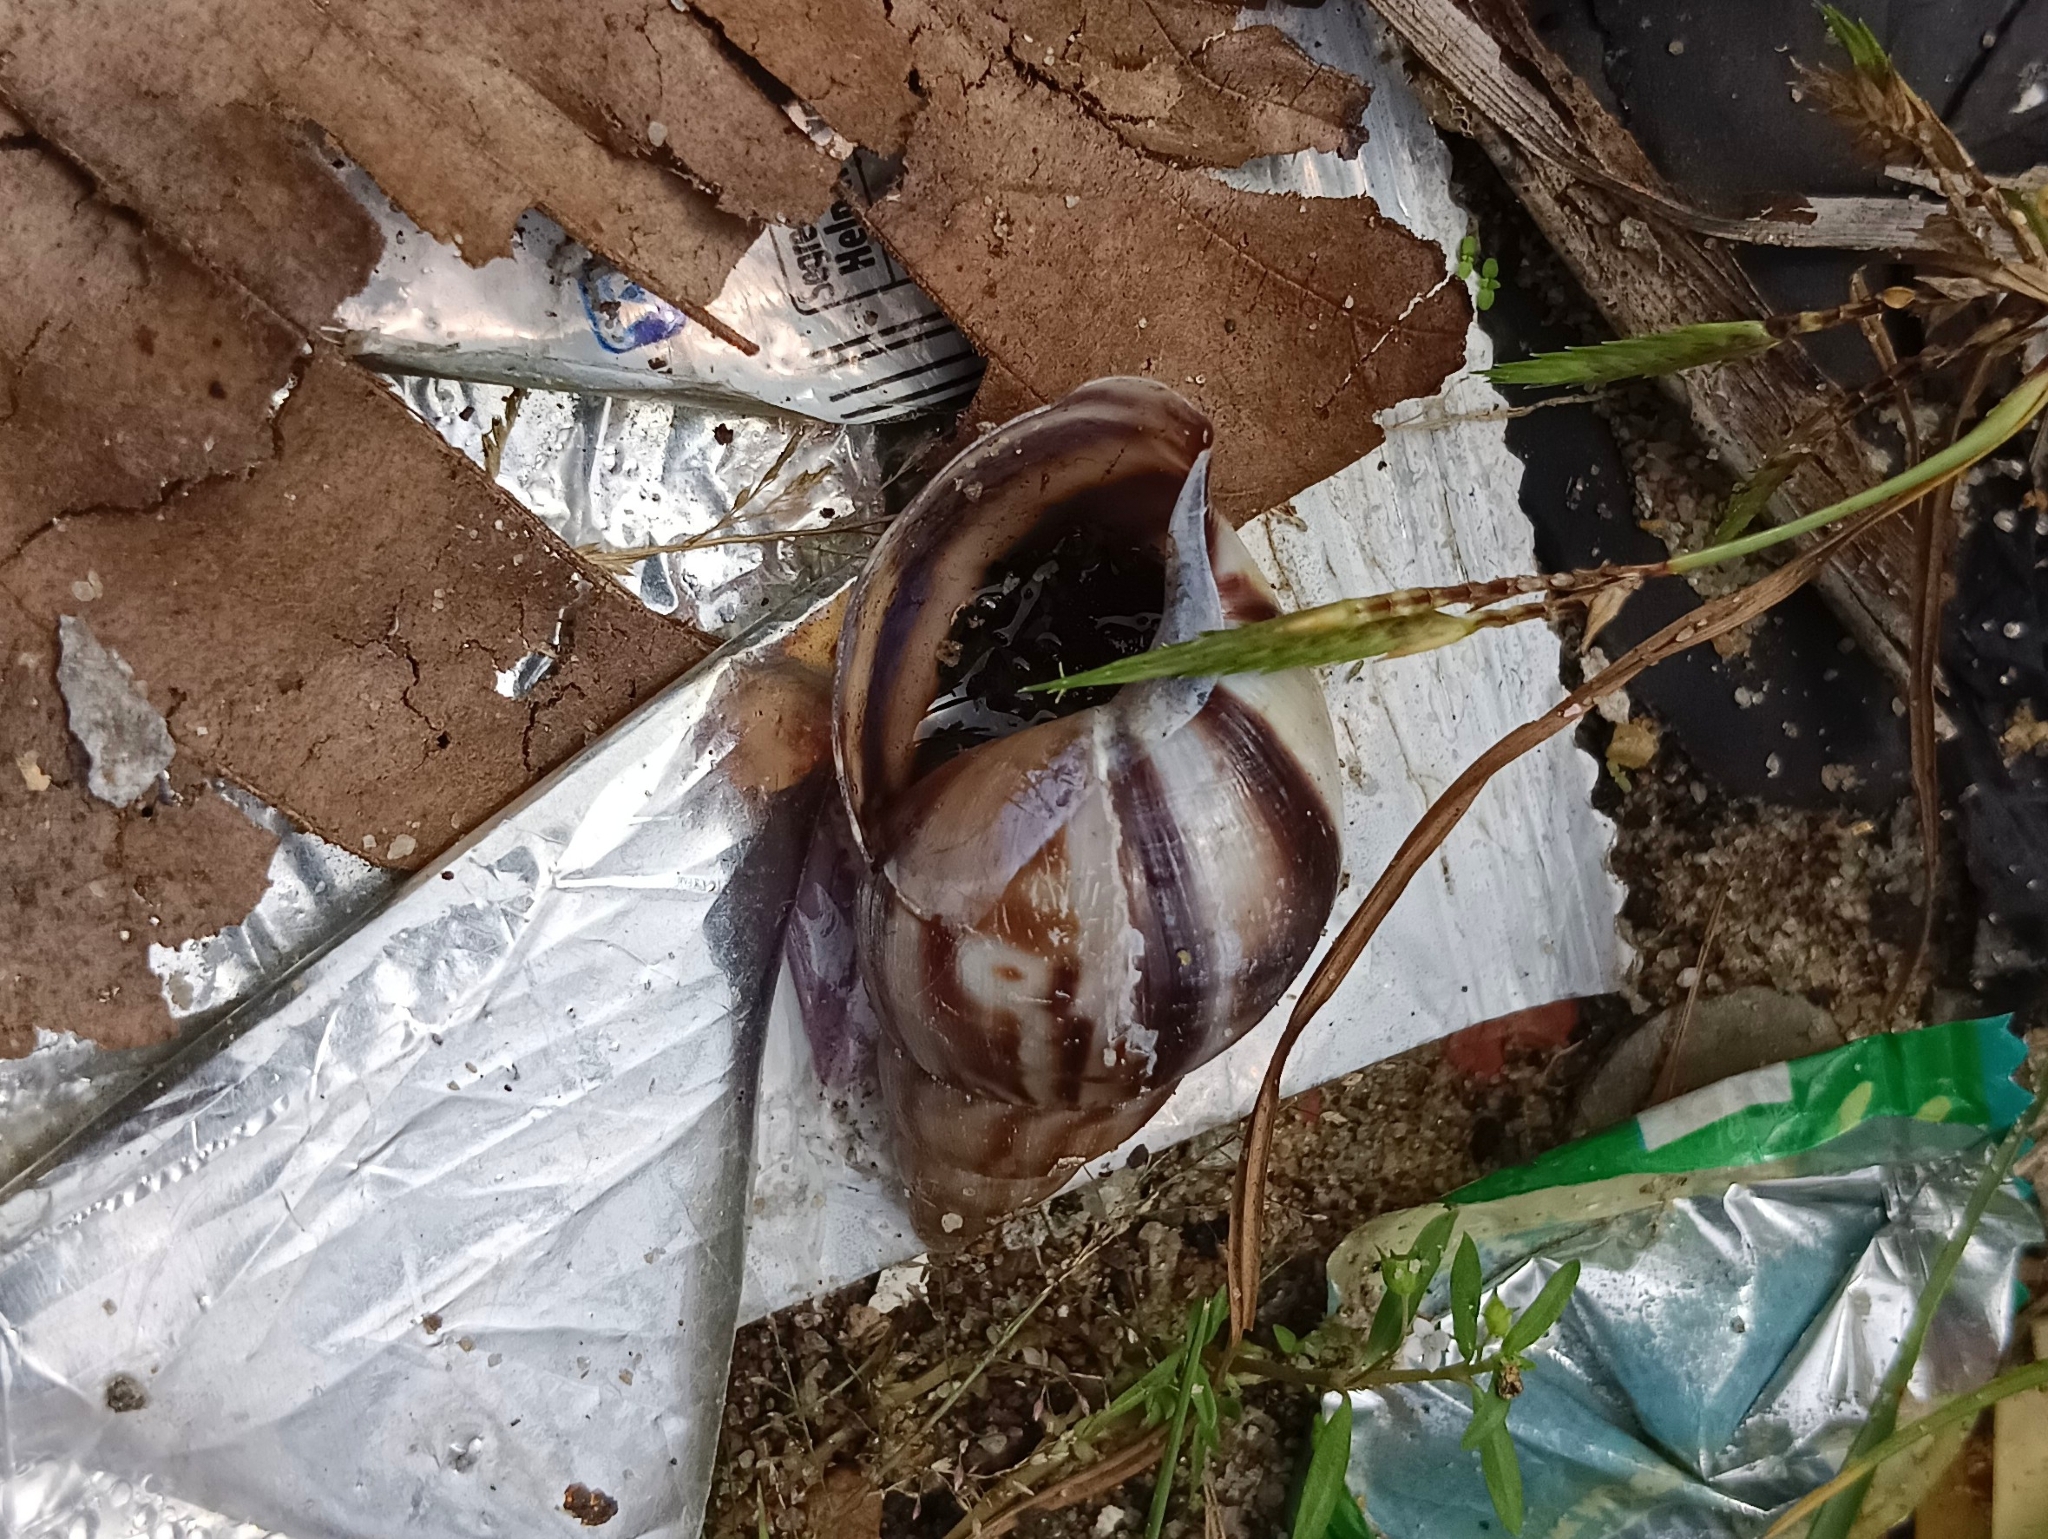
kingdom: Animalia
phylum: Mollusca
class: Gastropoda
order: Stylommatophora
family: Achatinidae
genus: Lissachatina
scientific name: Lissachatina fulica
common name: Giant african snail
